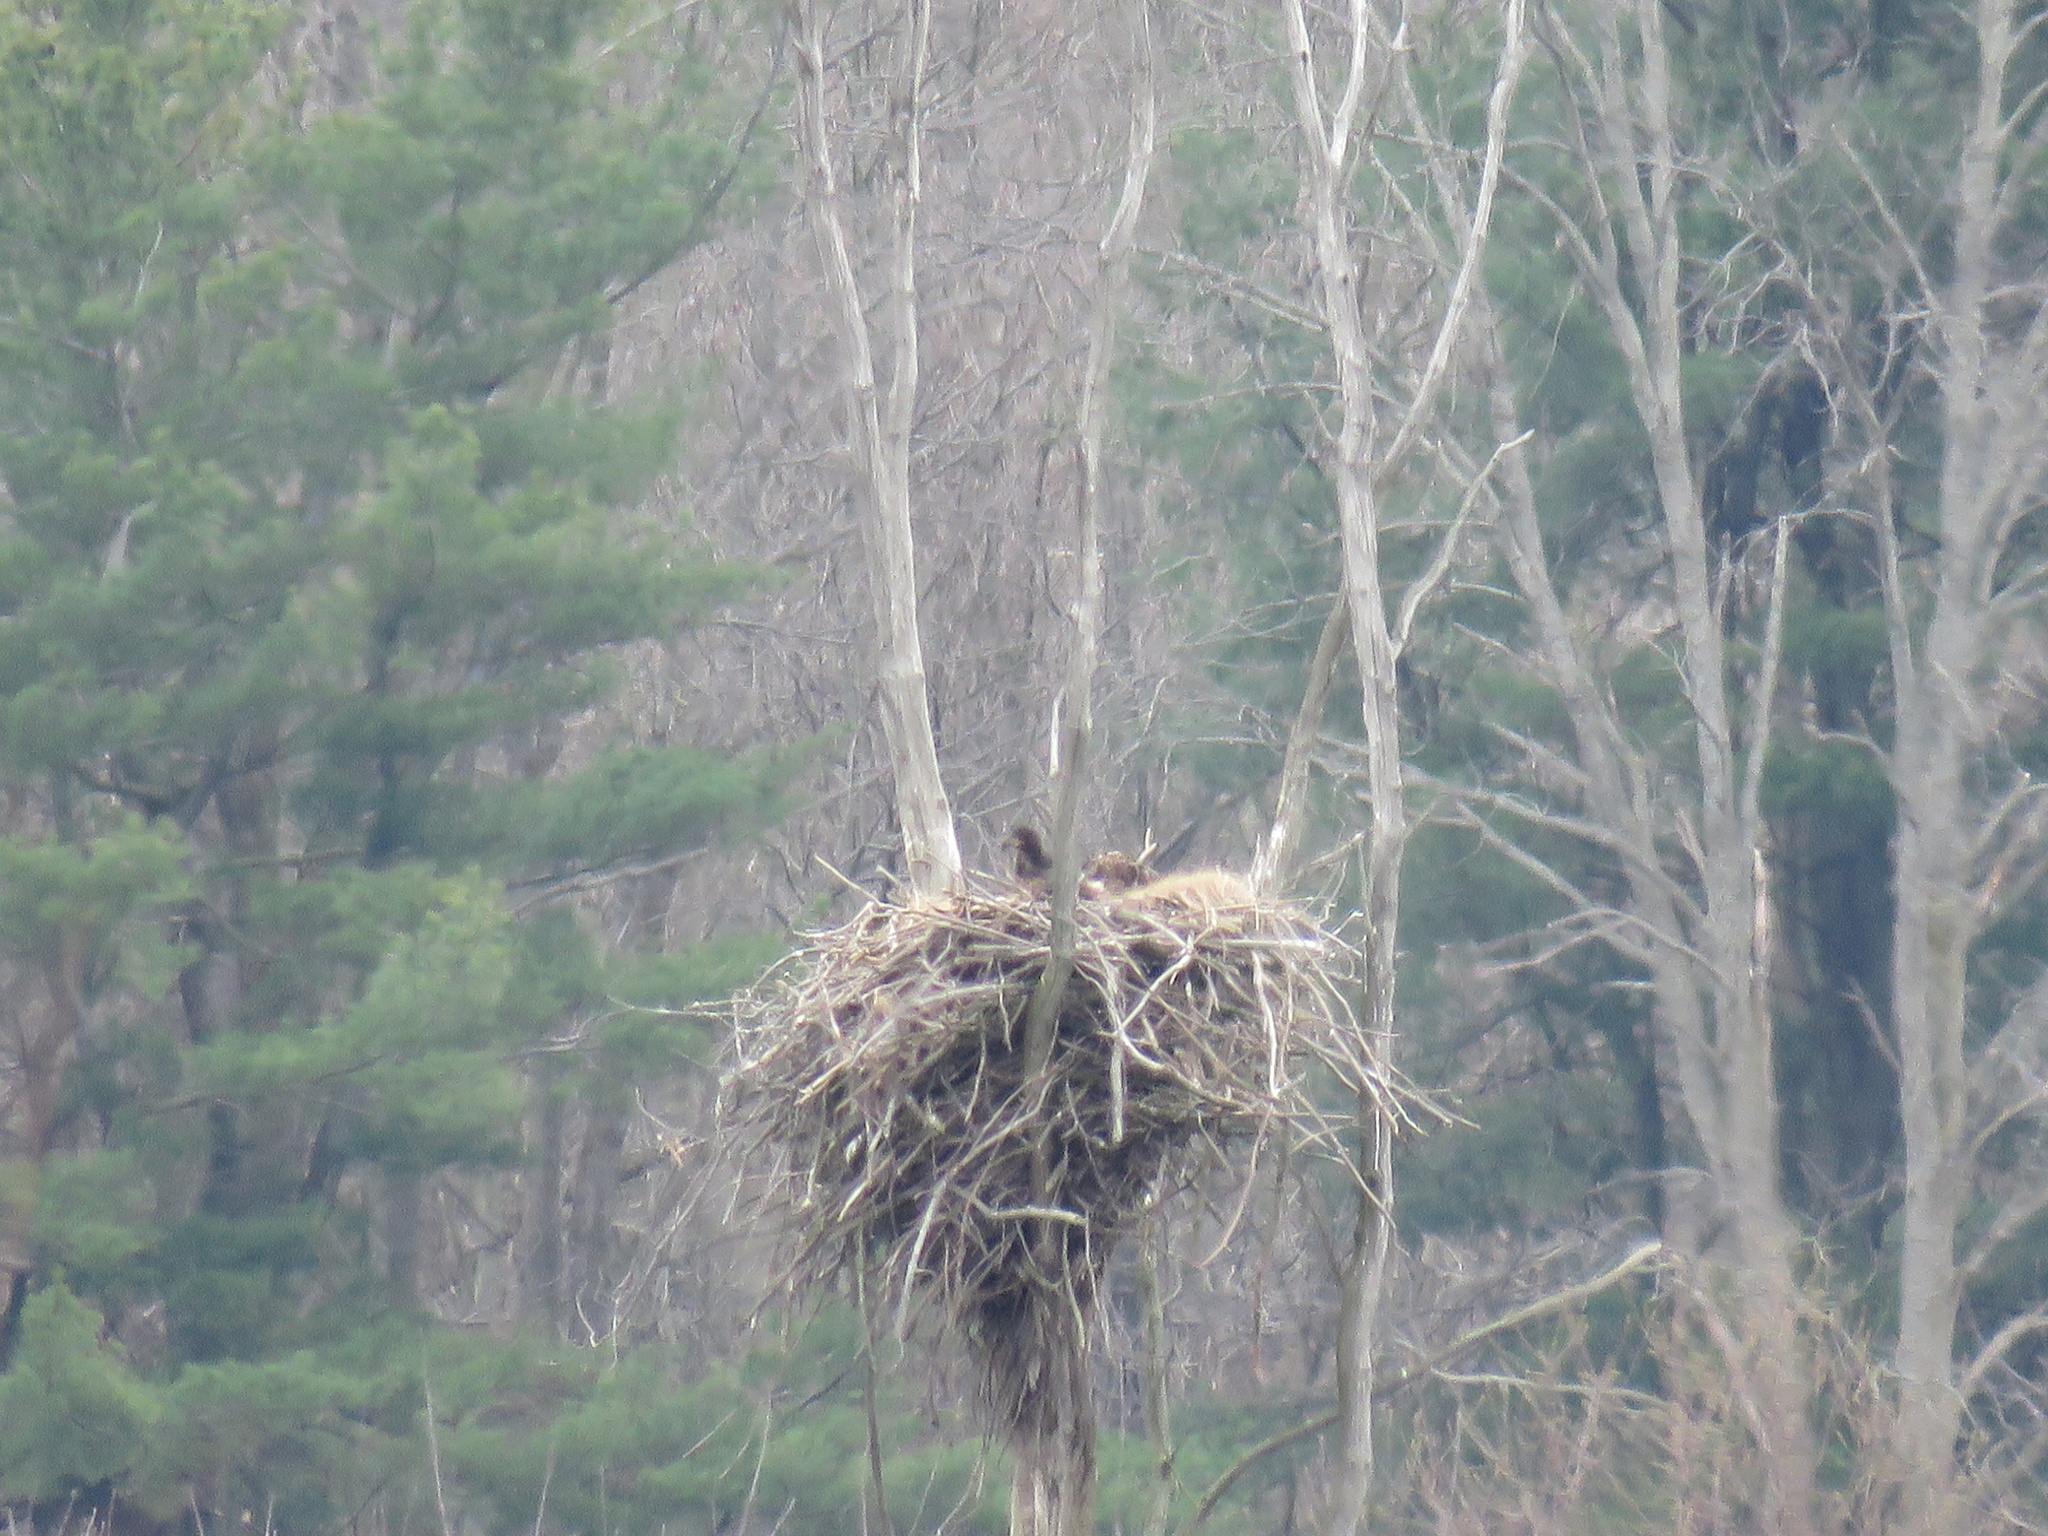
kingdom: Animalia
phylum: Chordata
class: Aves
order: Accipitriformes
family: Accipitridae
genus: Haliaeetus
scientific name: Haliaeetus leucocephalus
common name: Bald eagle
